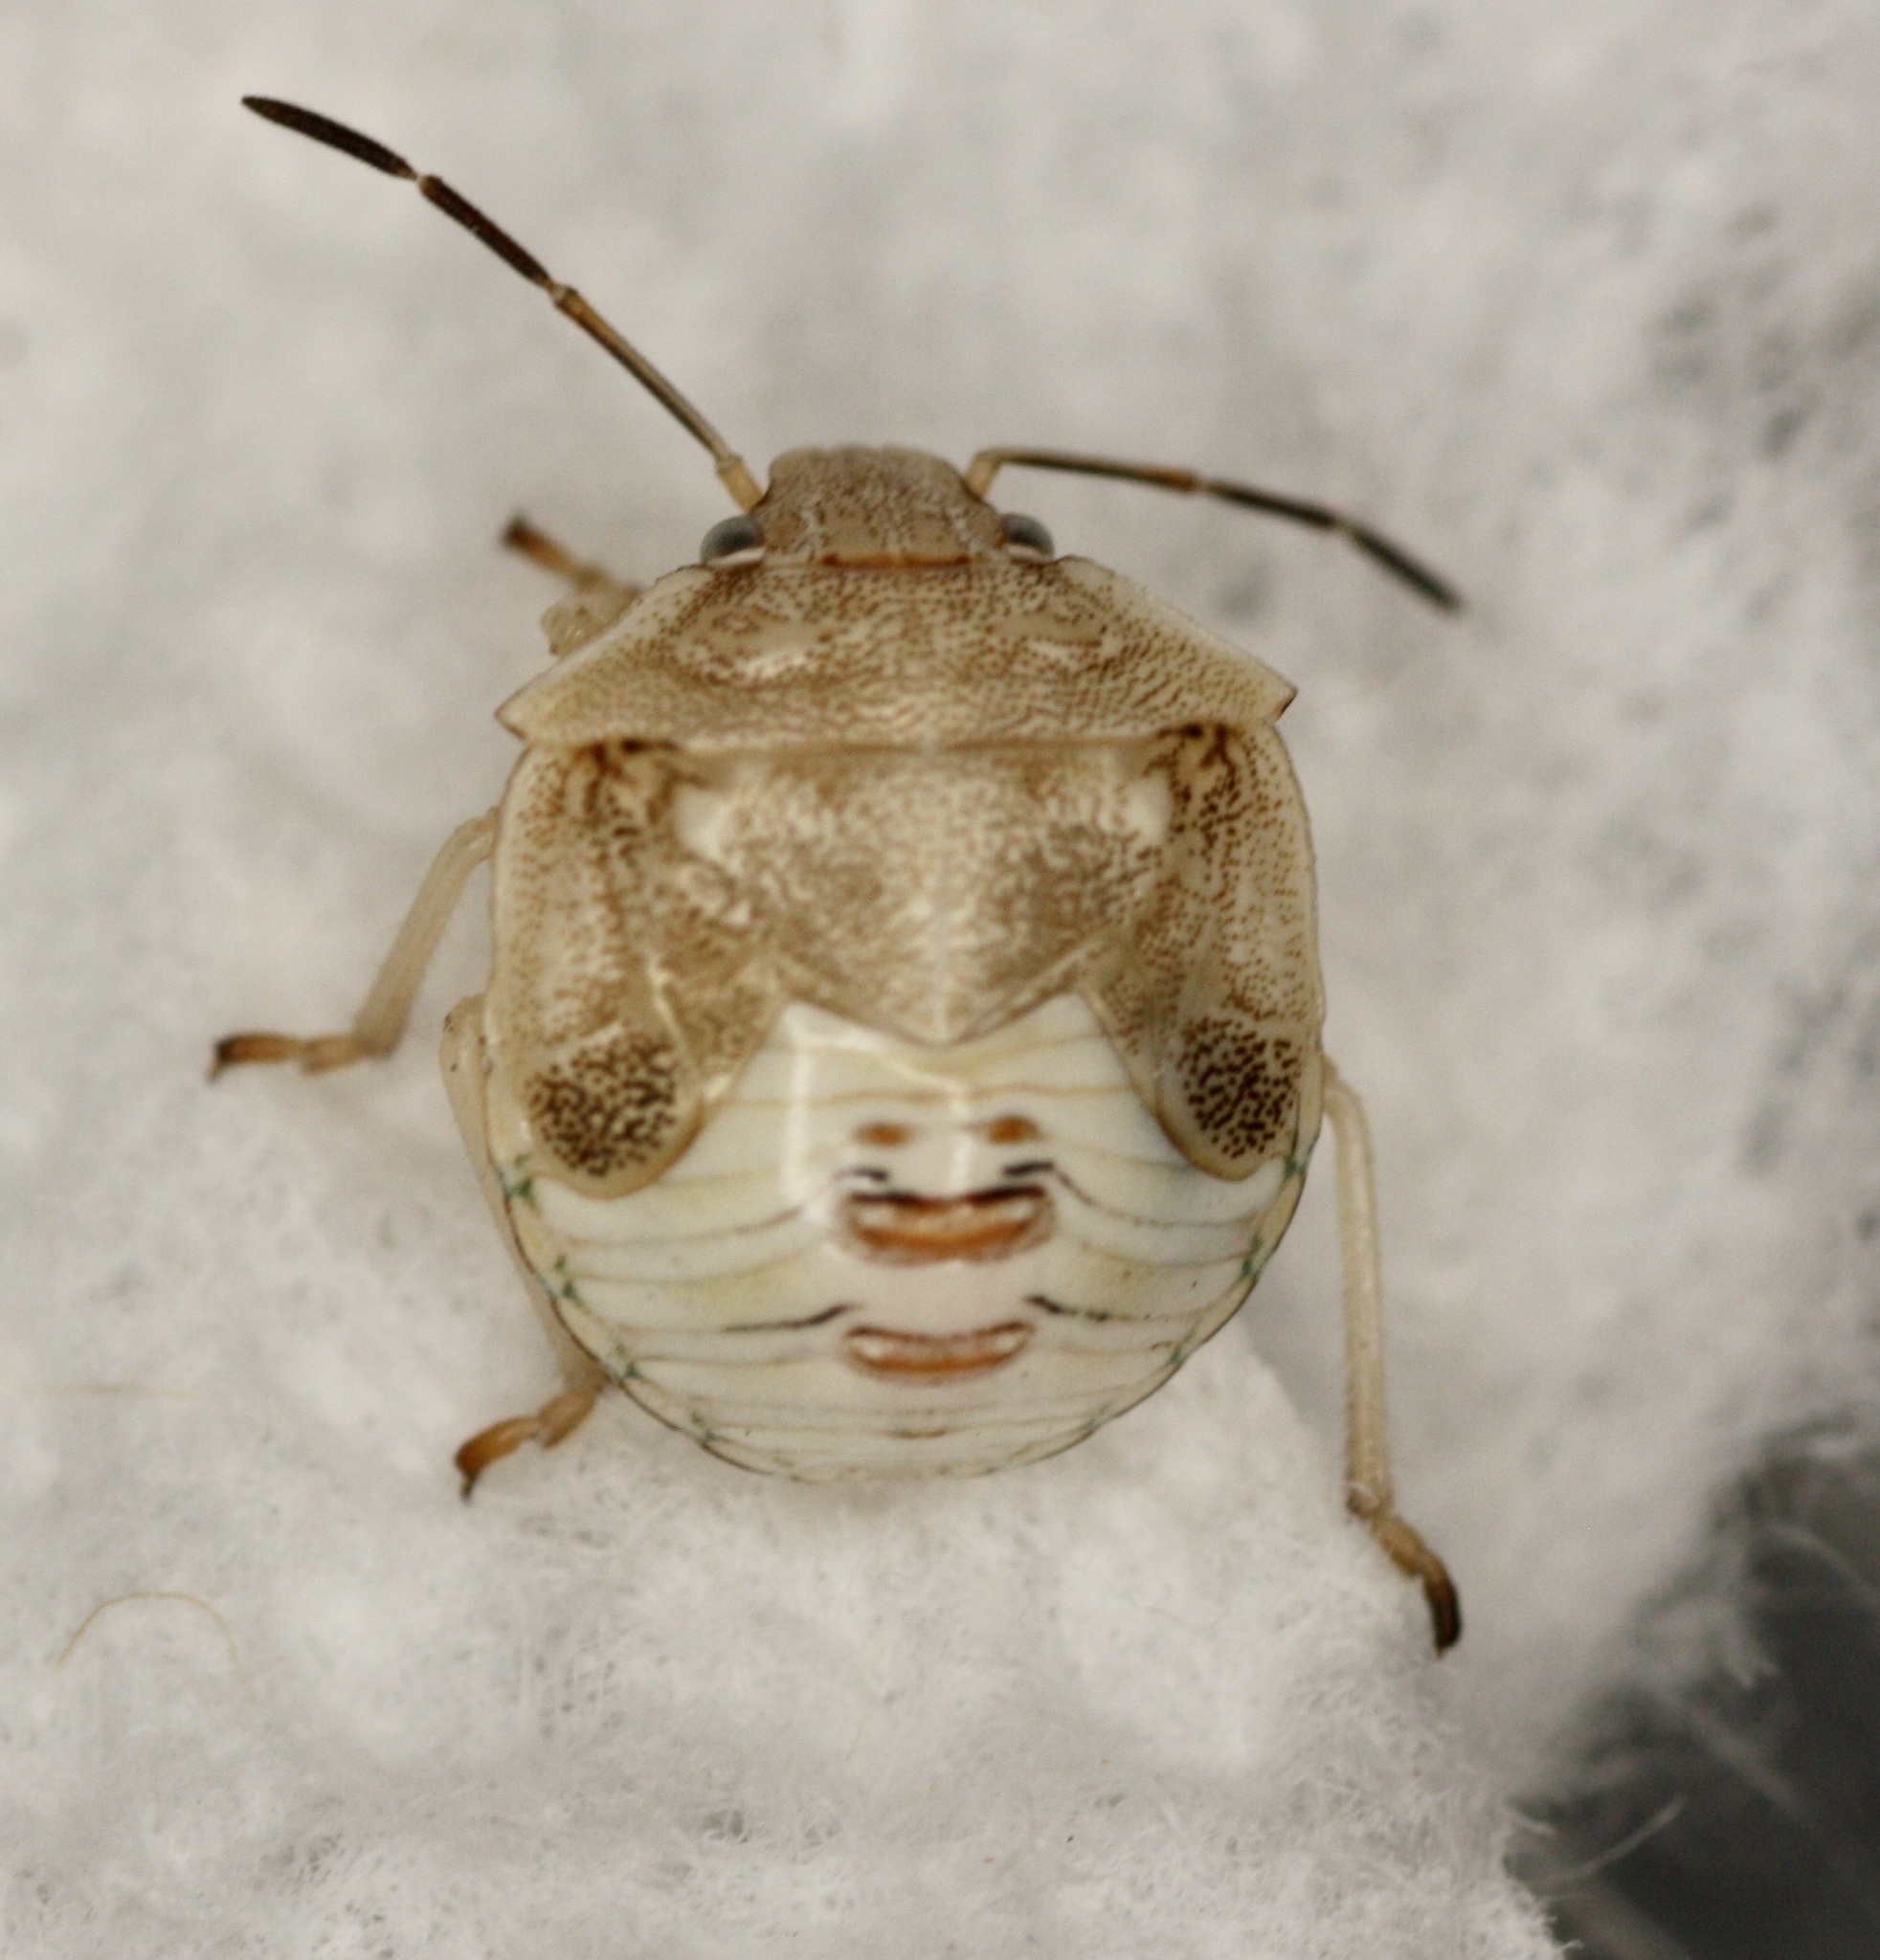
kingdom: Animalia
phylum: Arthropoda
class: Insecta
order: Hemiptera
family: Pentatomidae
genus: Thyanta
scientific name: Thyanta accerra
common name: Stink bug
